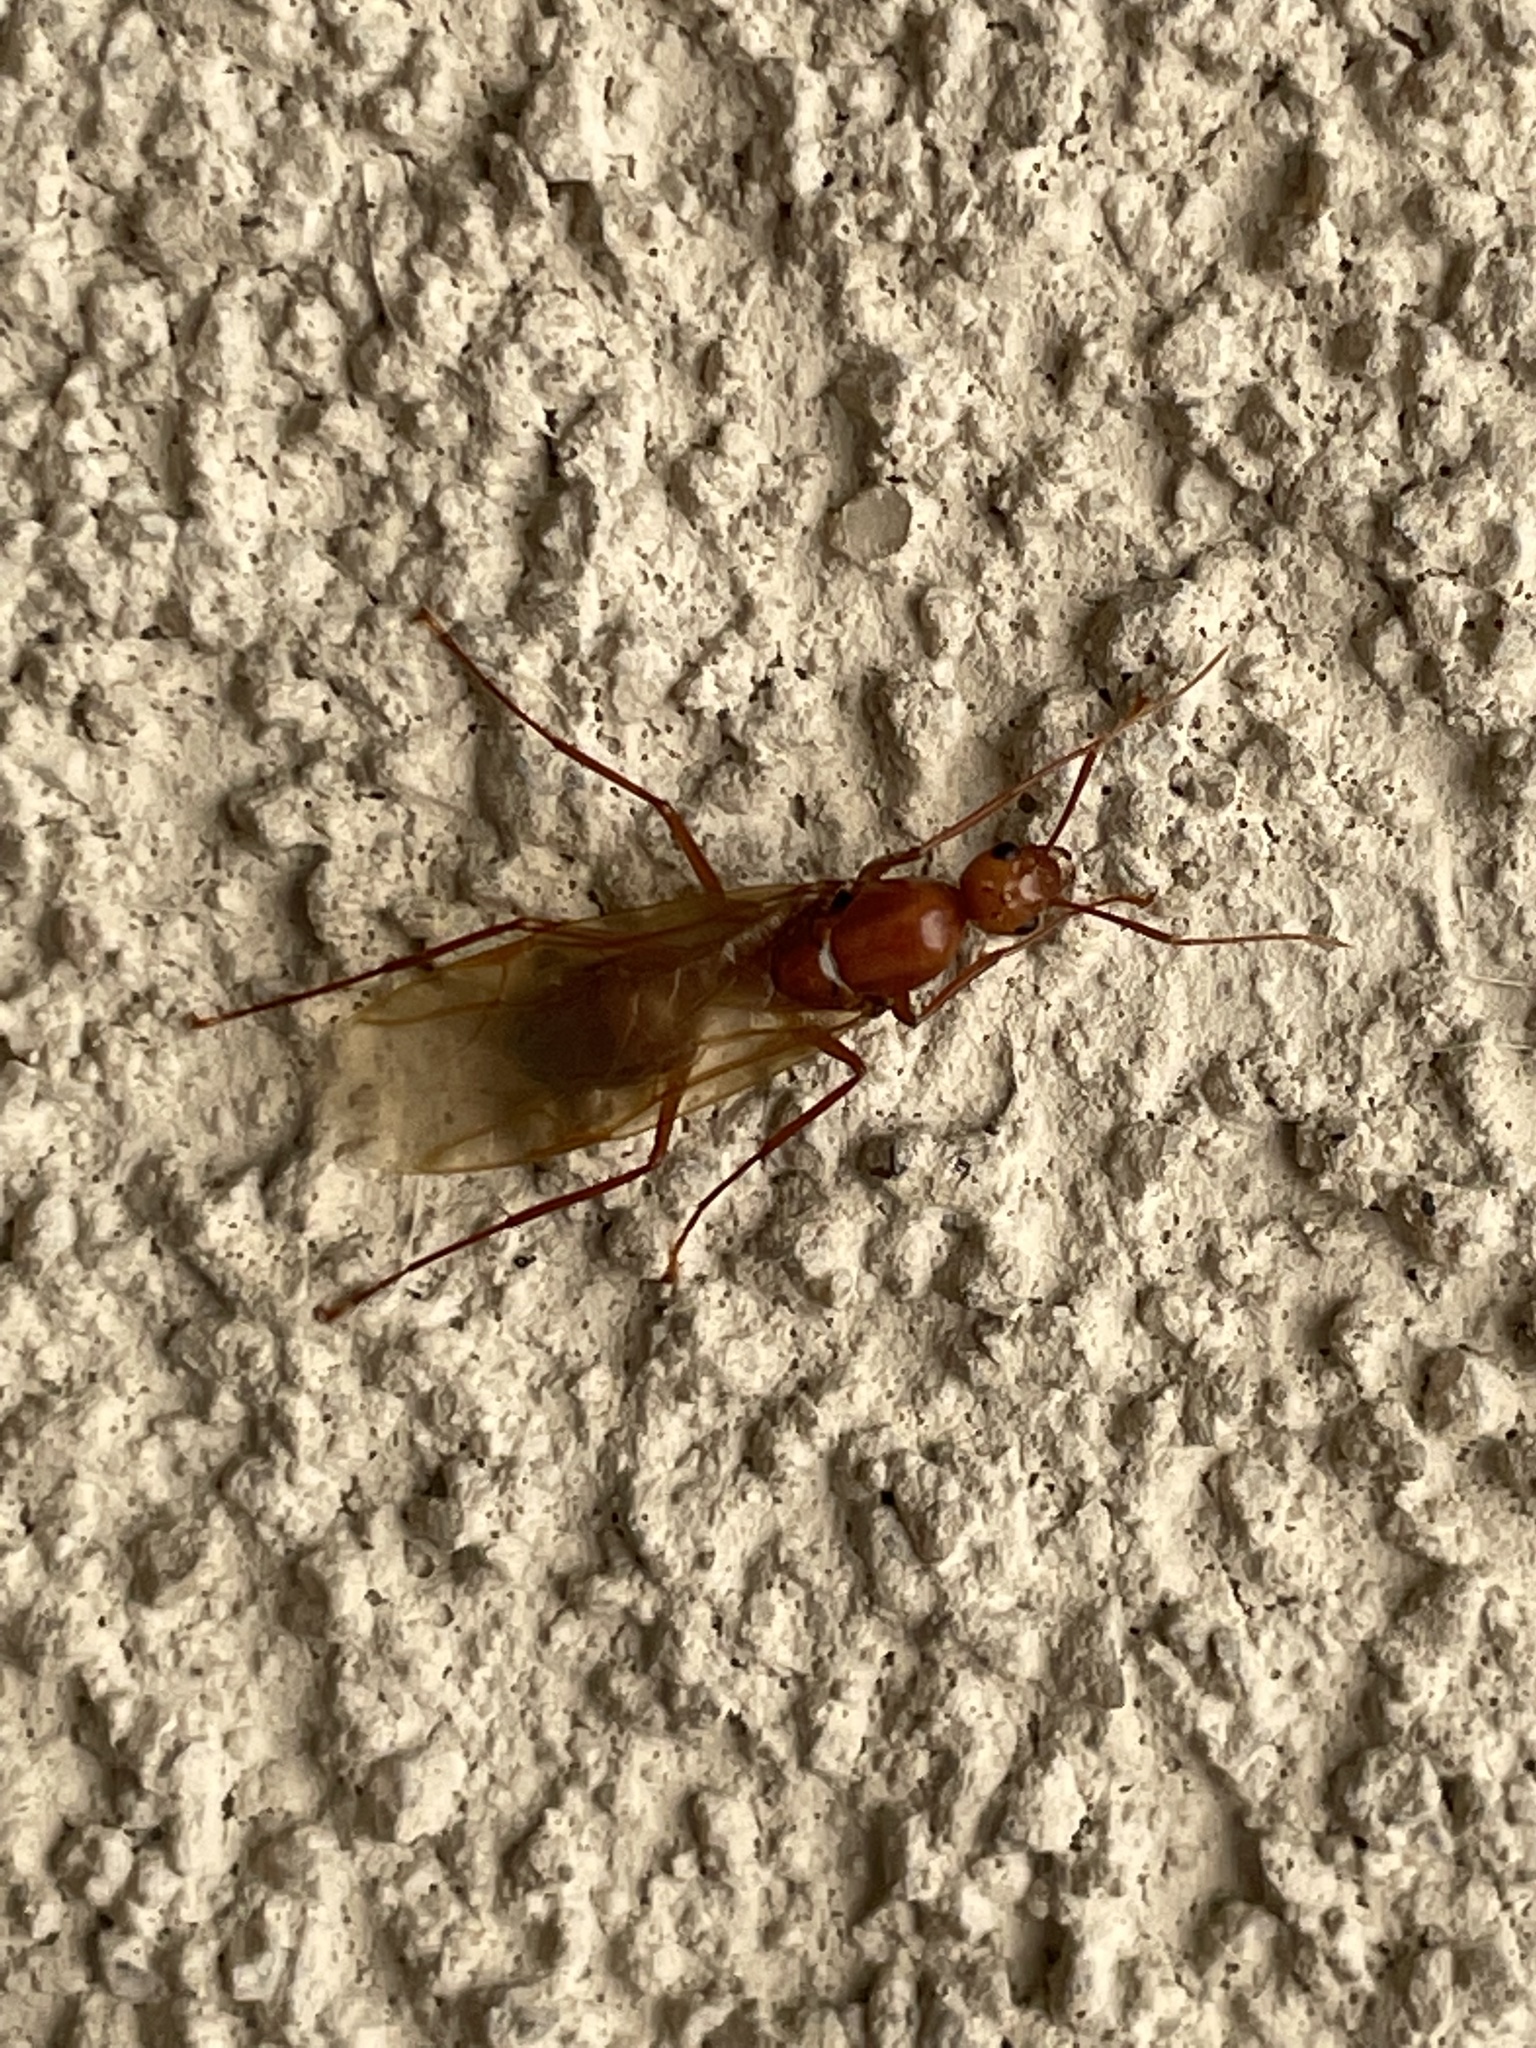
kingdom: Animalia
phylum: Arthropoda
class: Insecta
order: Hymenoptera
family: Formicidae
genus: Camponotus
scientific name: Camponotus castaneus
